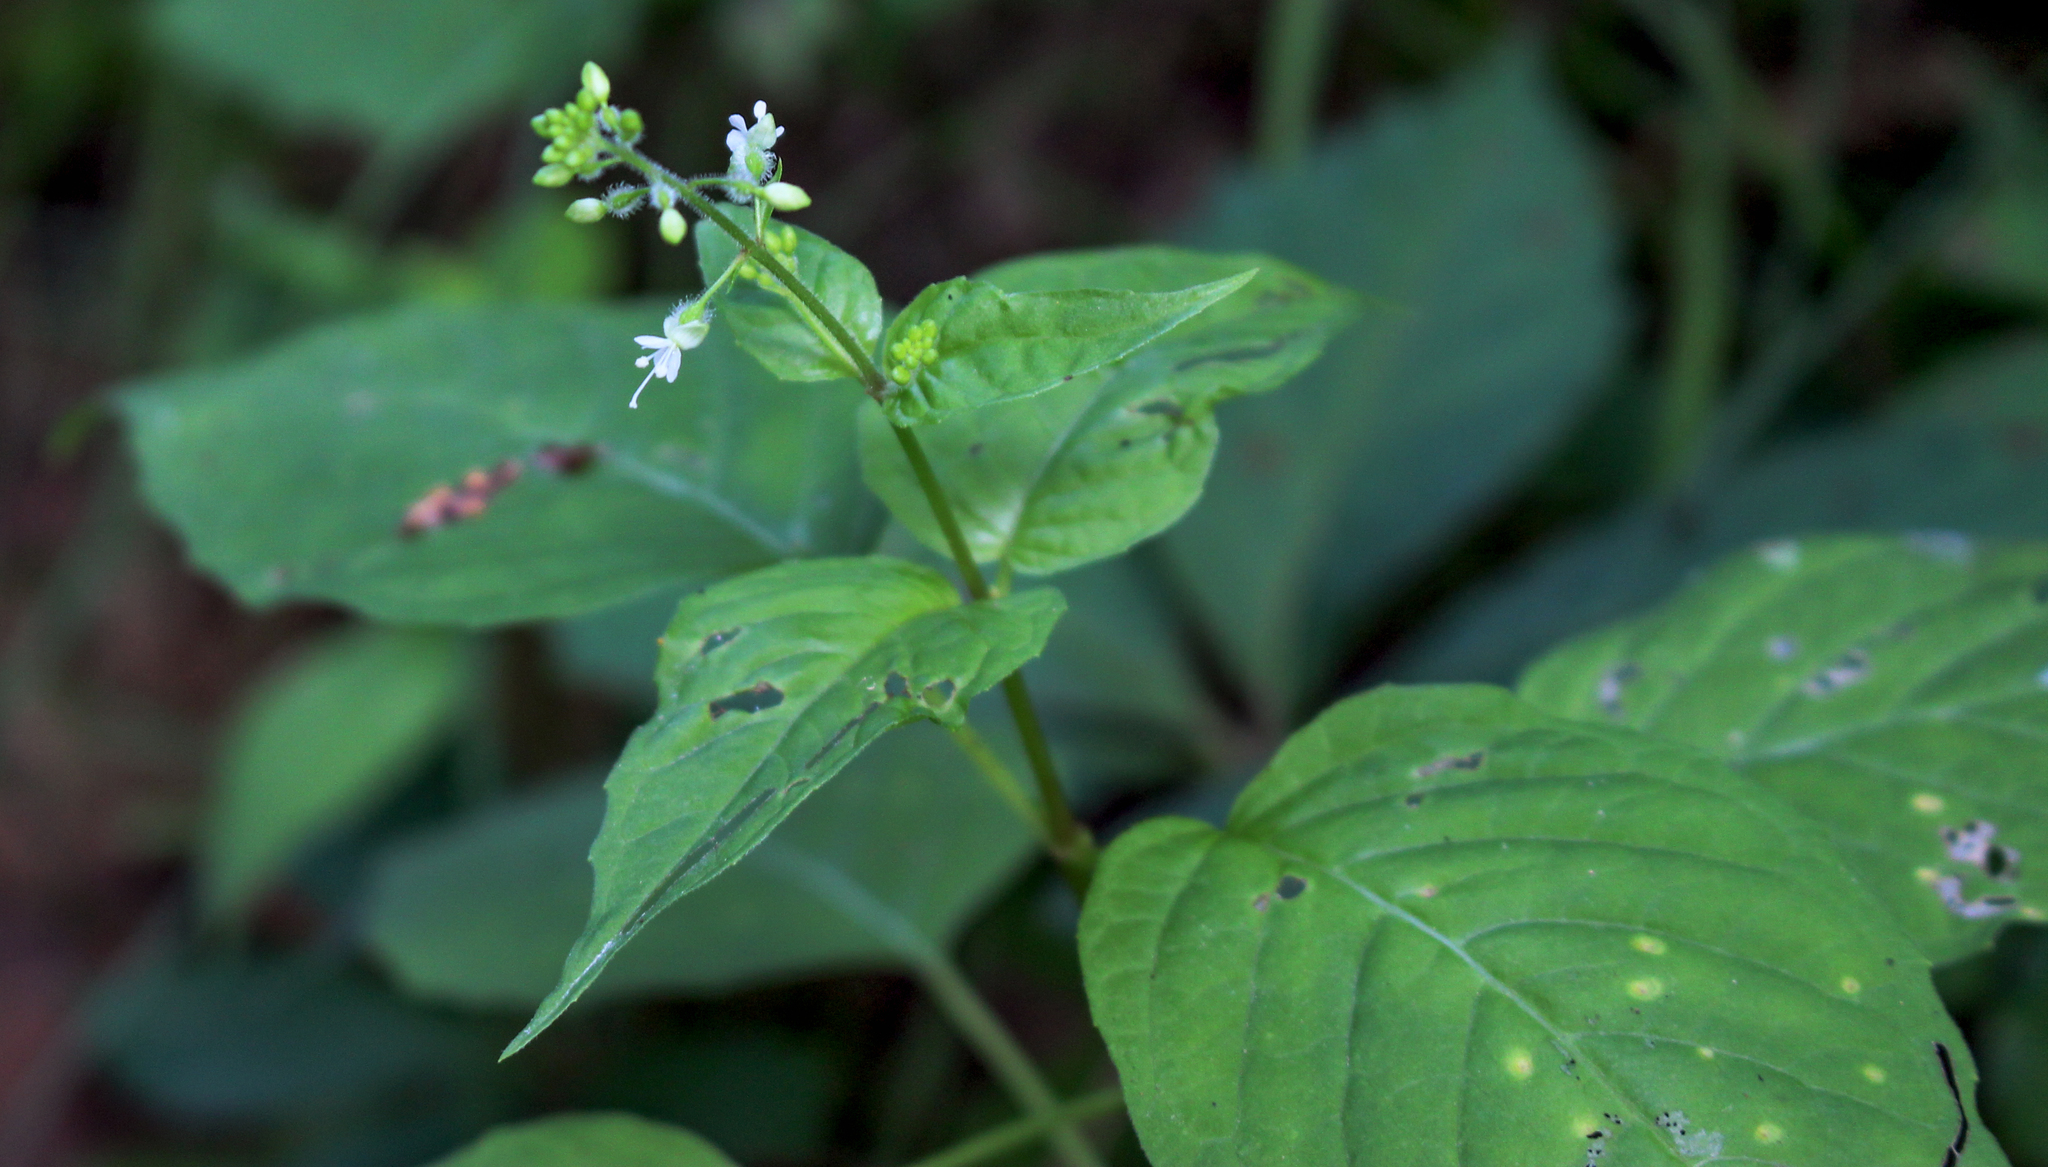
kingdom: Plantae
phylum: Tracheophyta
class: Magnoliopsida
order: Myrtales
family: Onagraceae
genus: Circaea
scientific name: Circaea canadensis
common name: Broad-leaved enchanter's nightshade
